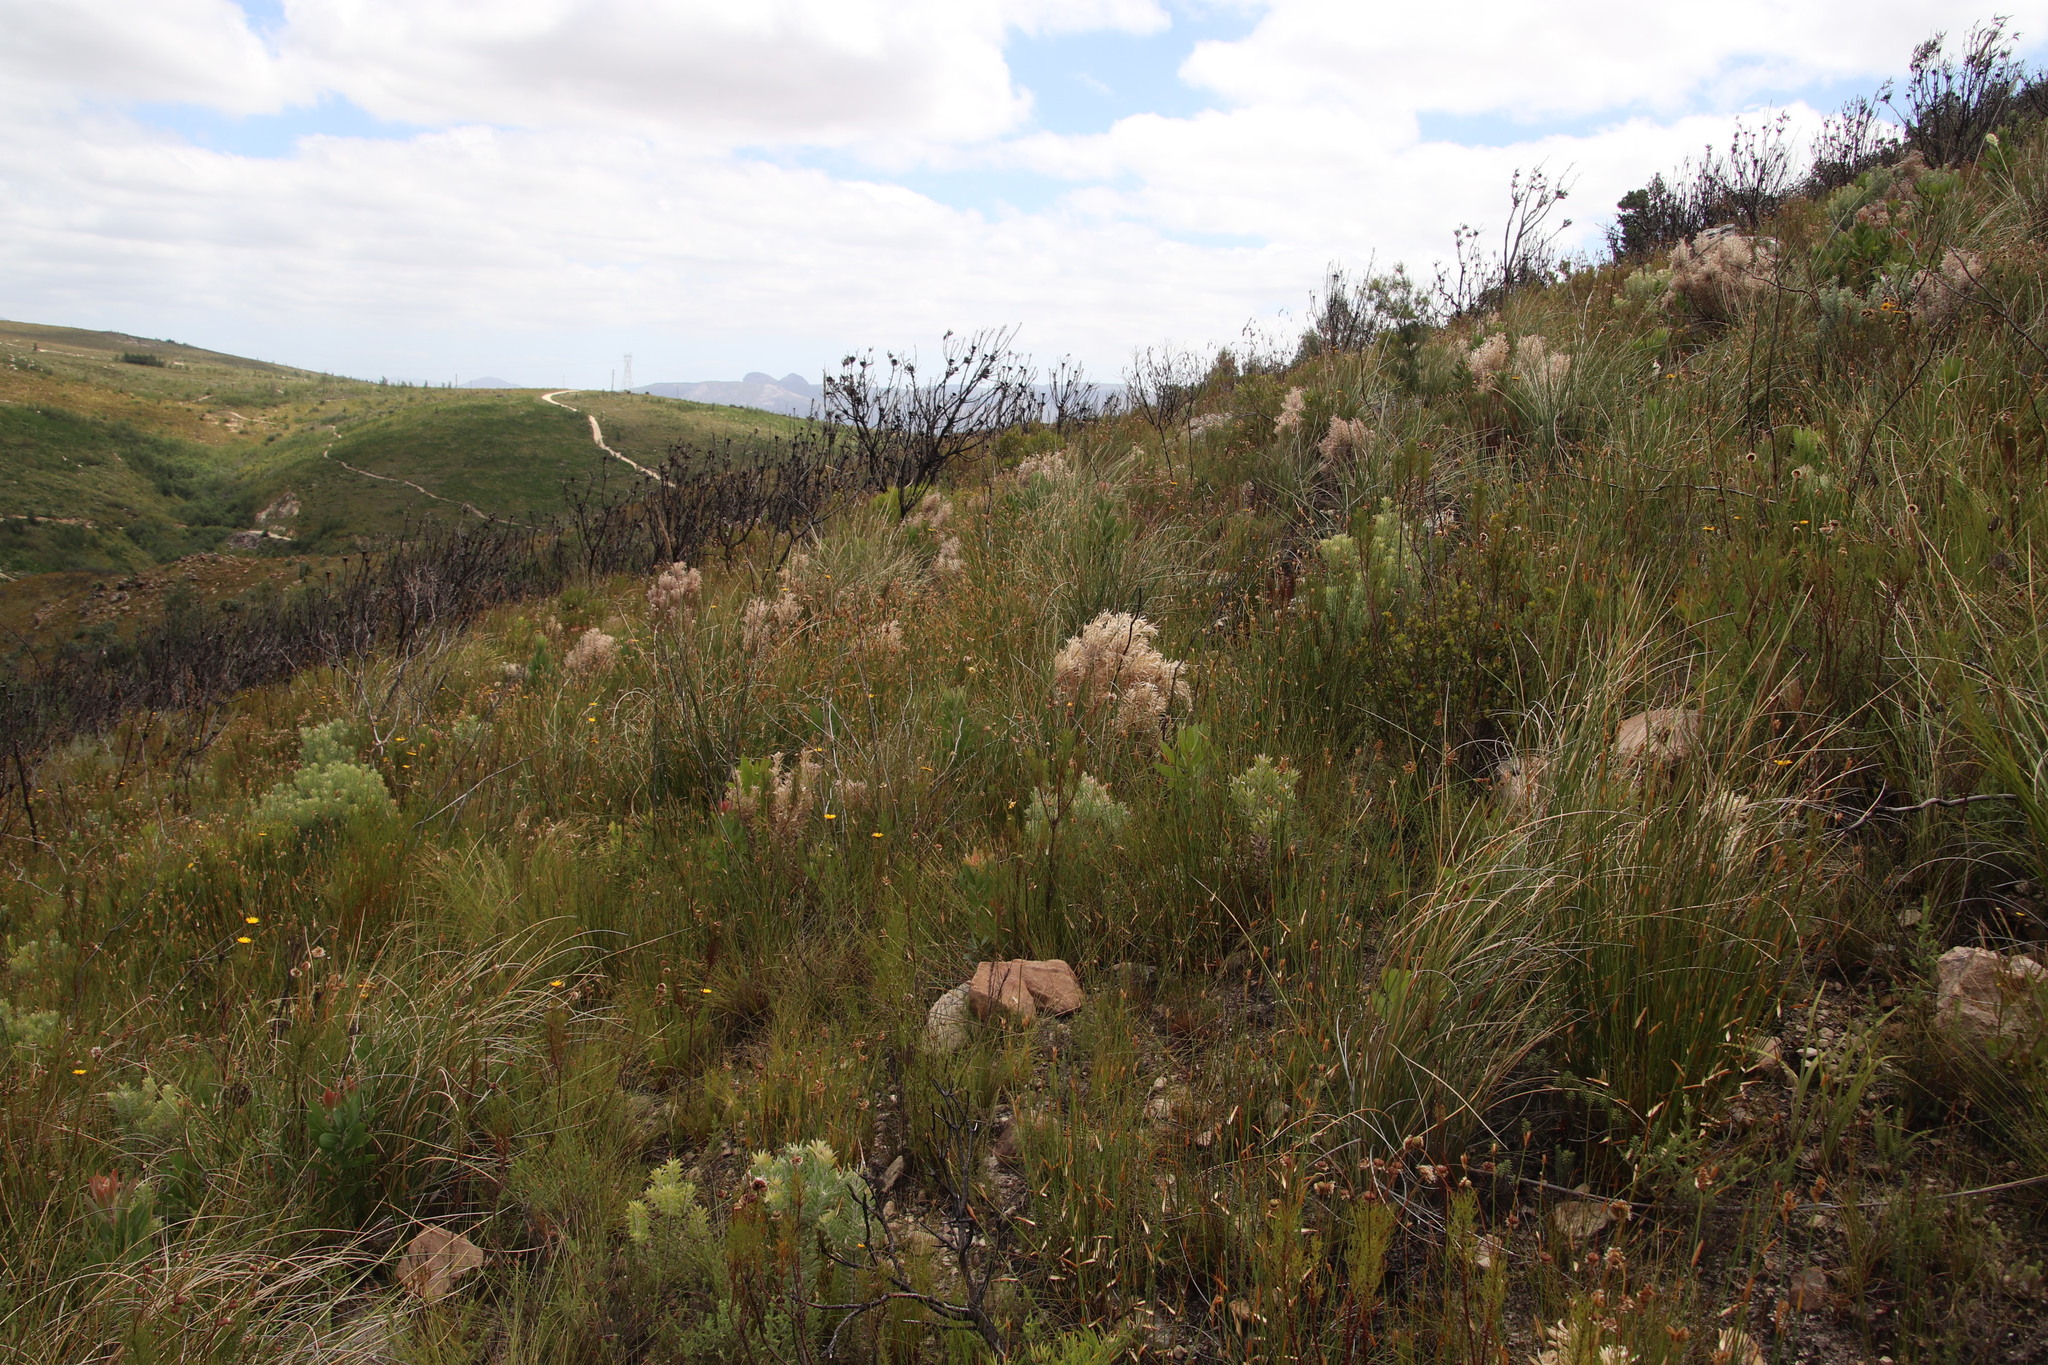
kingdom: Plantae
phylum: Tracheophyta
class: Magnoliopsida
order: Proteales
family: Proteaceae
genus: Leucadendron
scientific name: Leucadendron rubrum
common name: Spinning top
